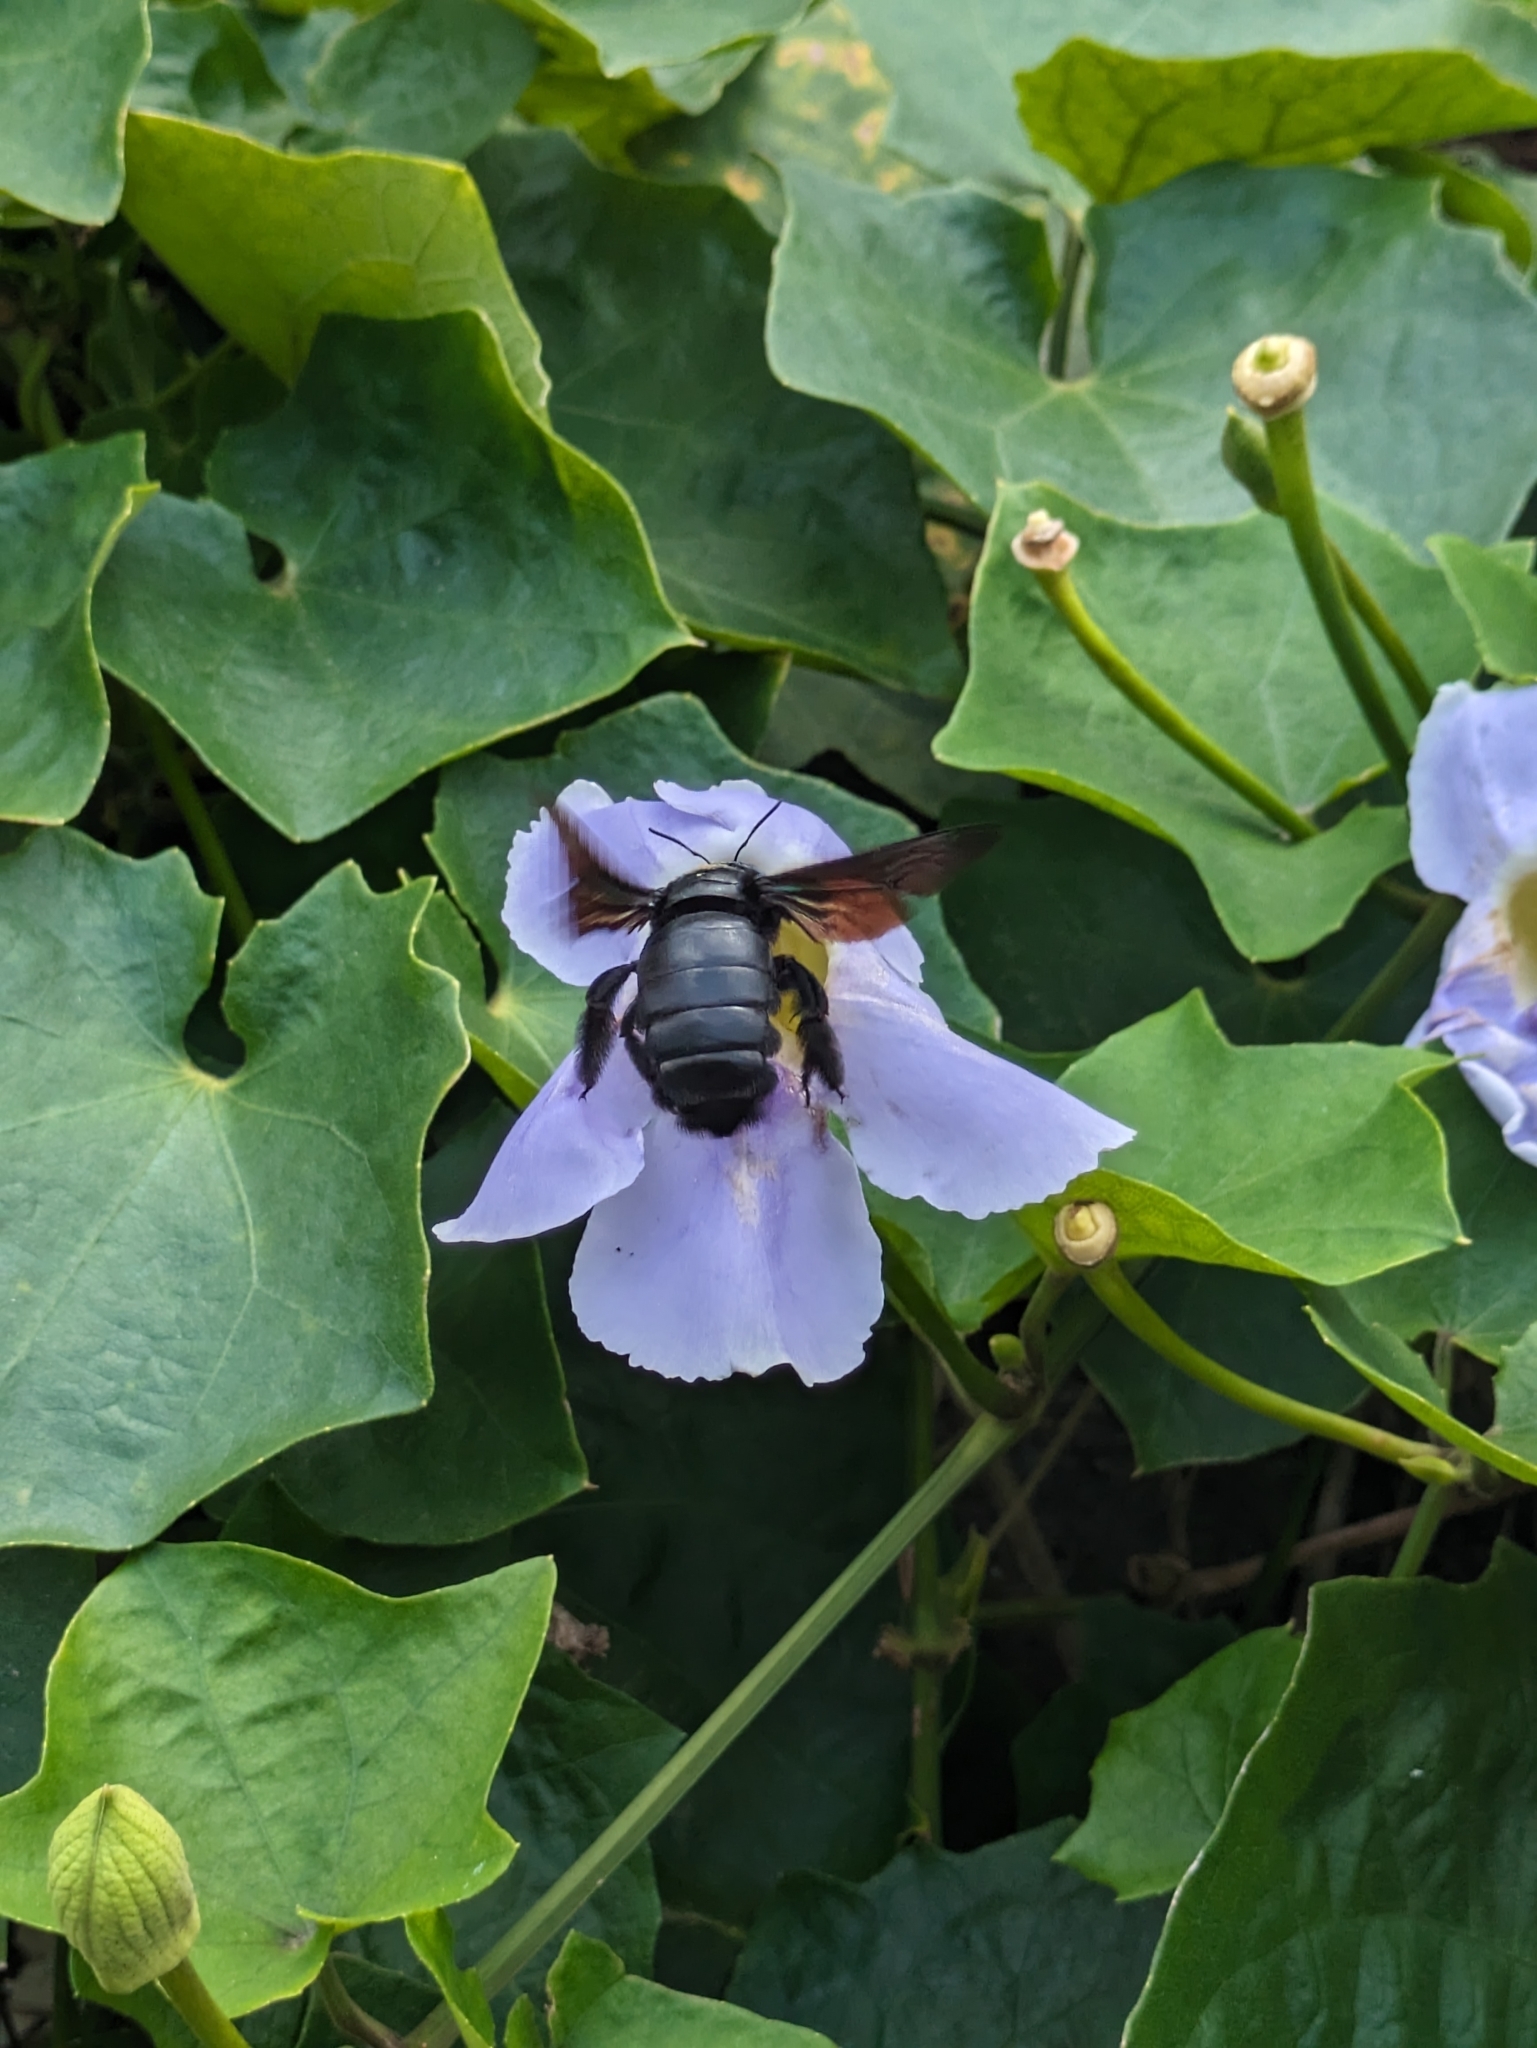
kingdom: Animalia
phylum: Arthropoda
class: Insecta
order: Hymenoptera
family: Apidae
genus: Xylocopa
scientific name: Xylocopa latipes
